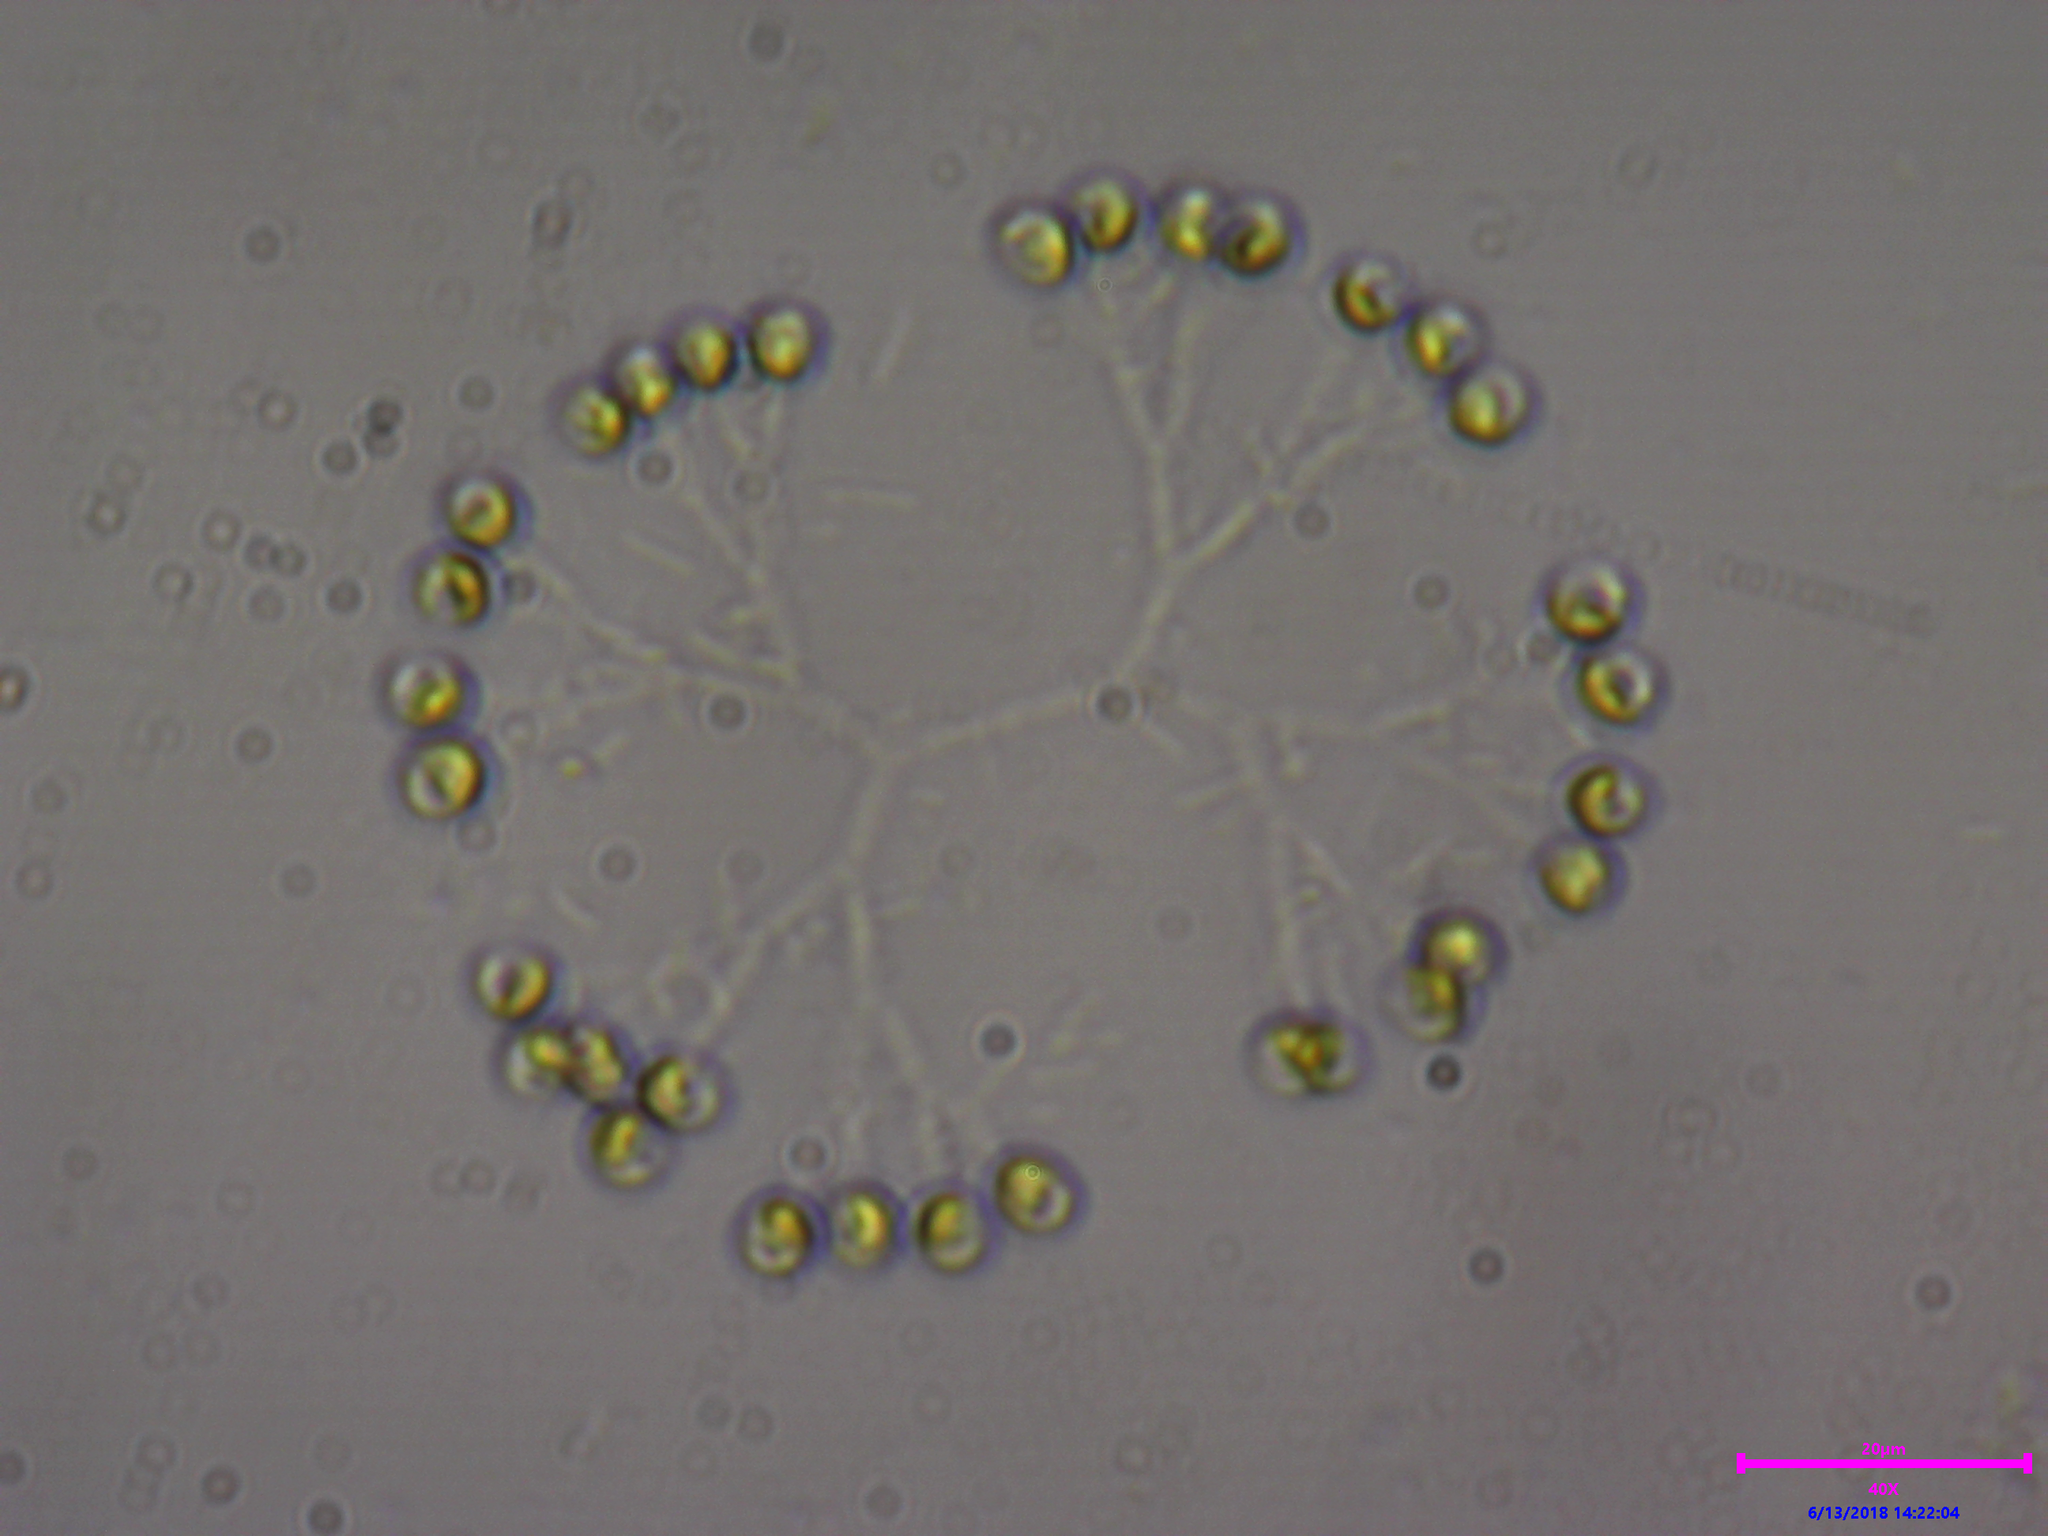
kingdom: Plantae
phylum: Chlorophyta
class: Trebouxiophyceae
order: Chlorellales
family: Chlorellaceae
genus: Dictyosphaerium
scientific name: Dictyosphaerium
